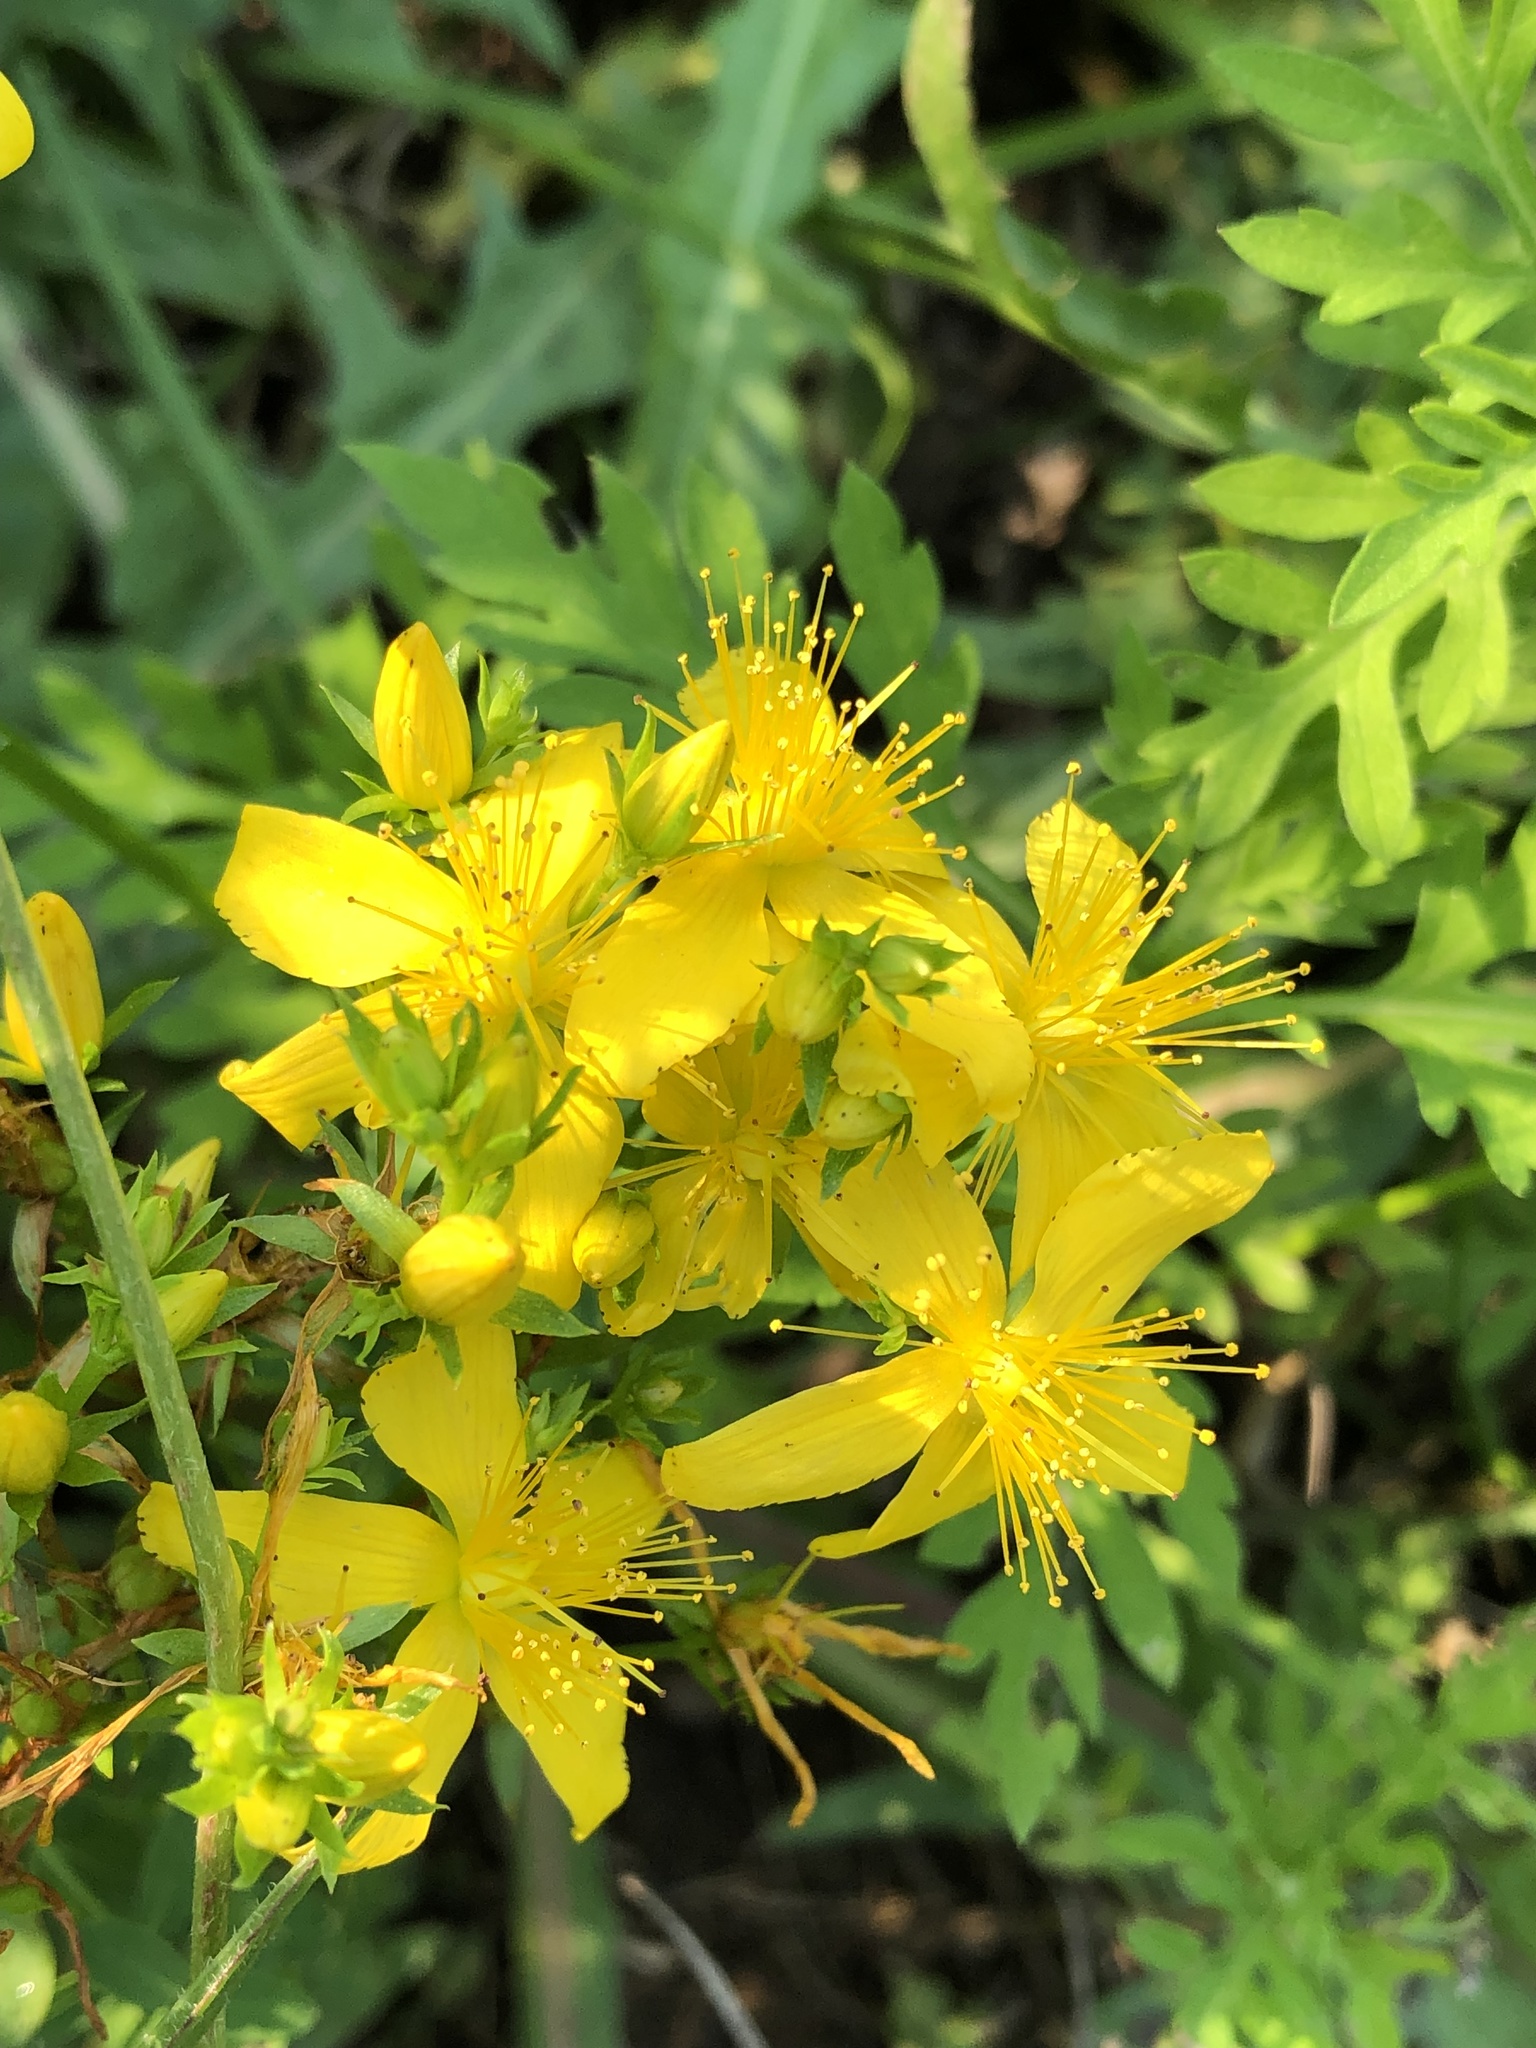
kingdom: Plantae
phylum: Tracheophyta
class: Magnoliopsida
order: Malpighiales
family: Hypericaceae
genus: Hypericum
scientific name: Hypericum perforatum
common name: Common st. johnswort
